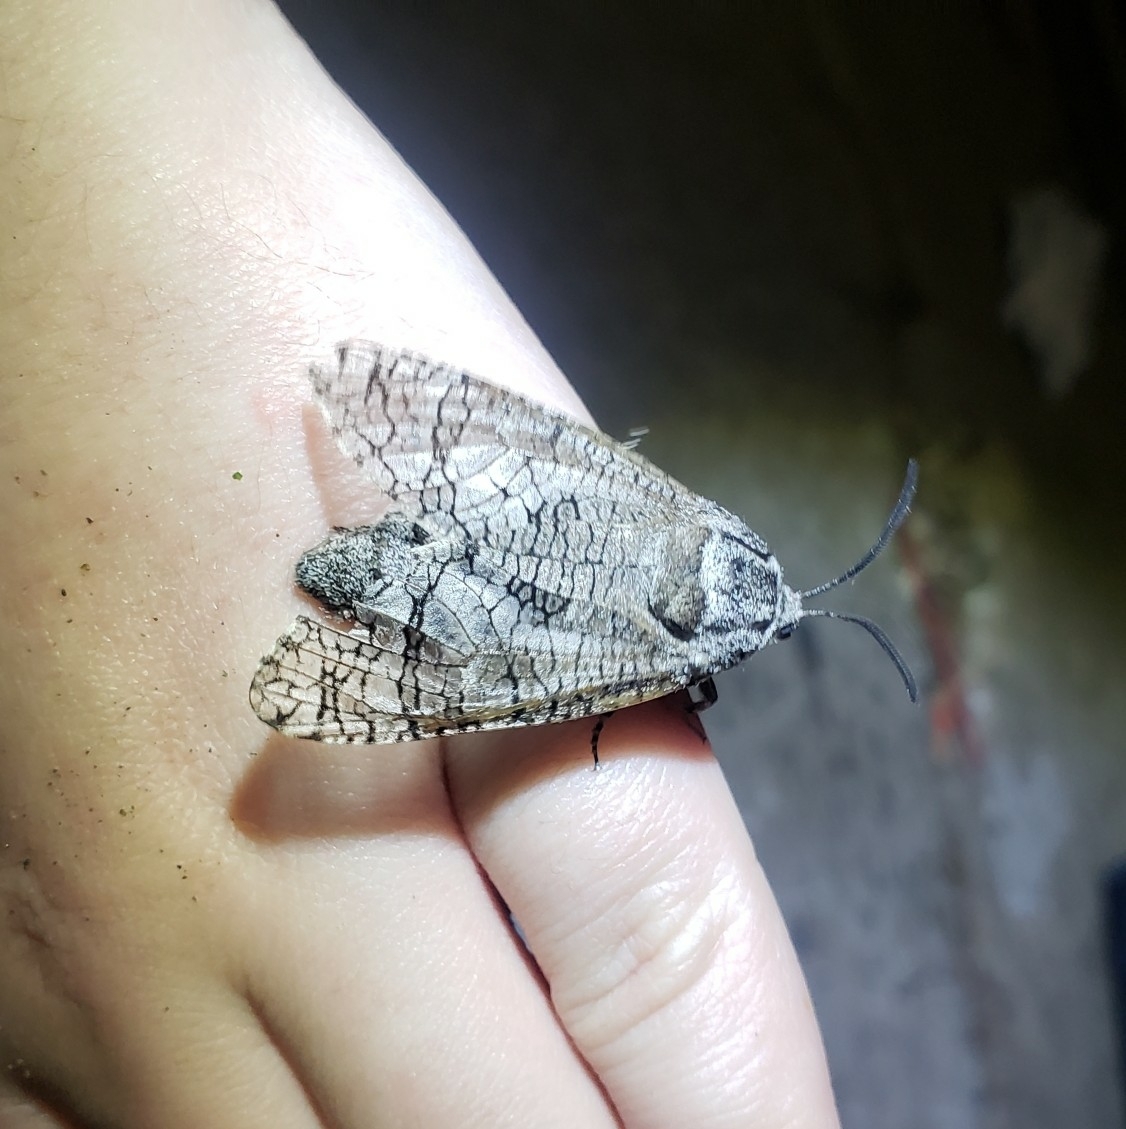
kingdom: Animalia
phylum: Arthropoda
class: Insecta
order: Lepidoptera
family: Cossidae
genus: Prionoxystus
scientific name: Prionoxystus macmurtrei
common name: Little carpenterworm
